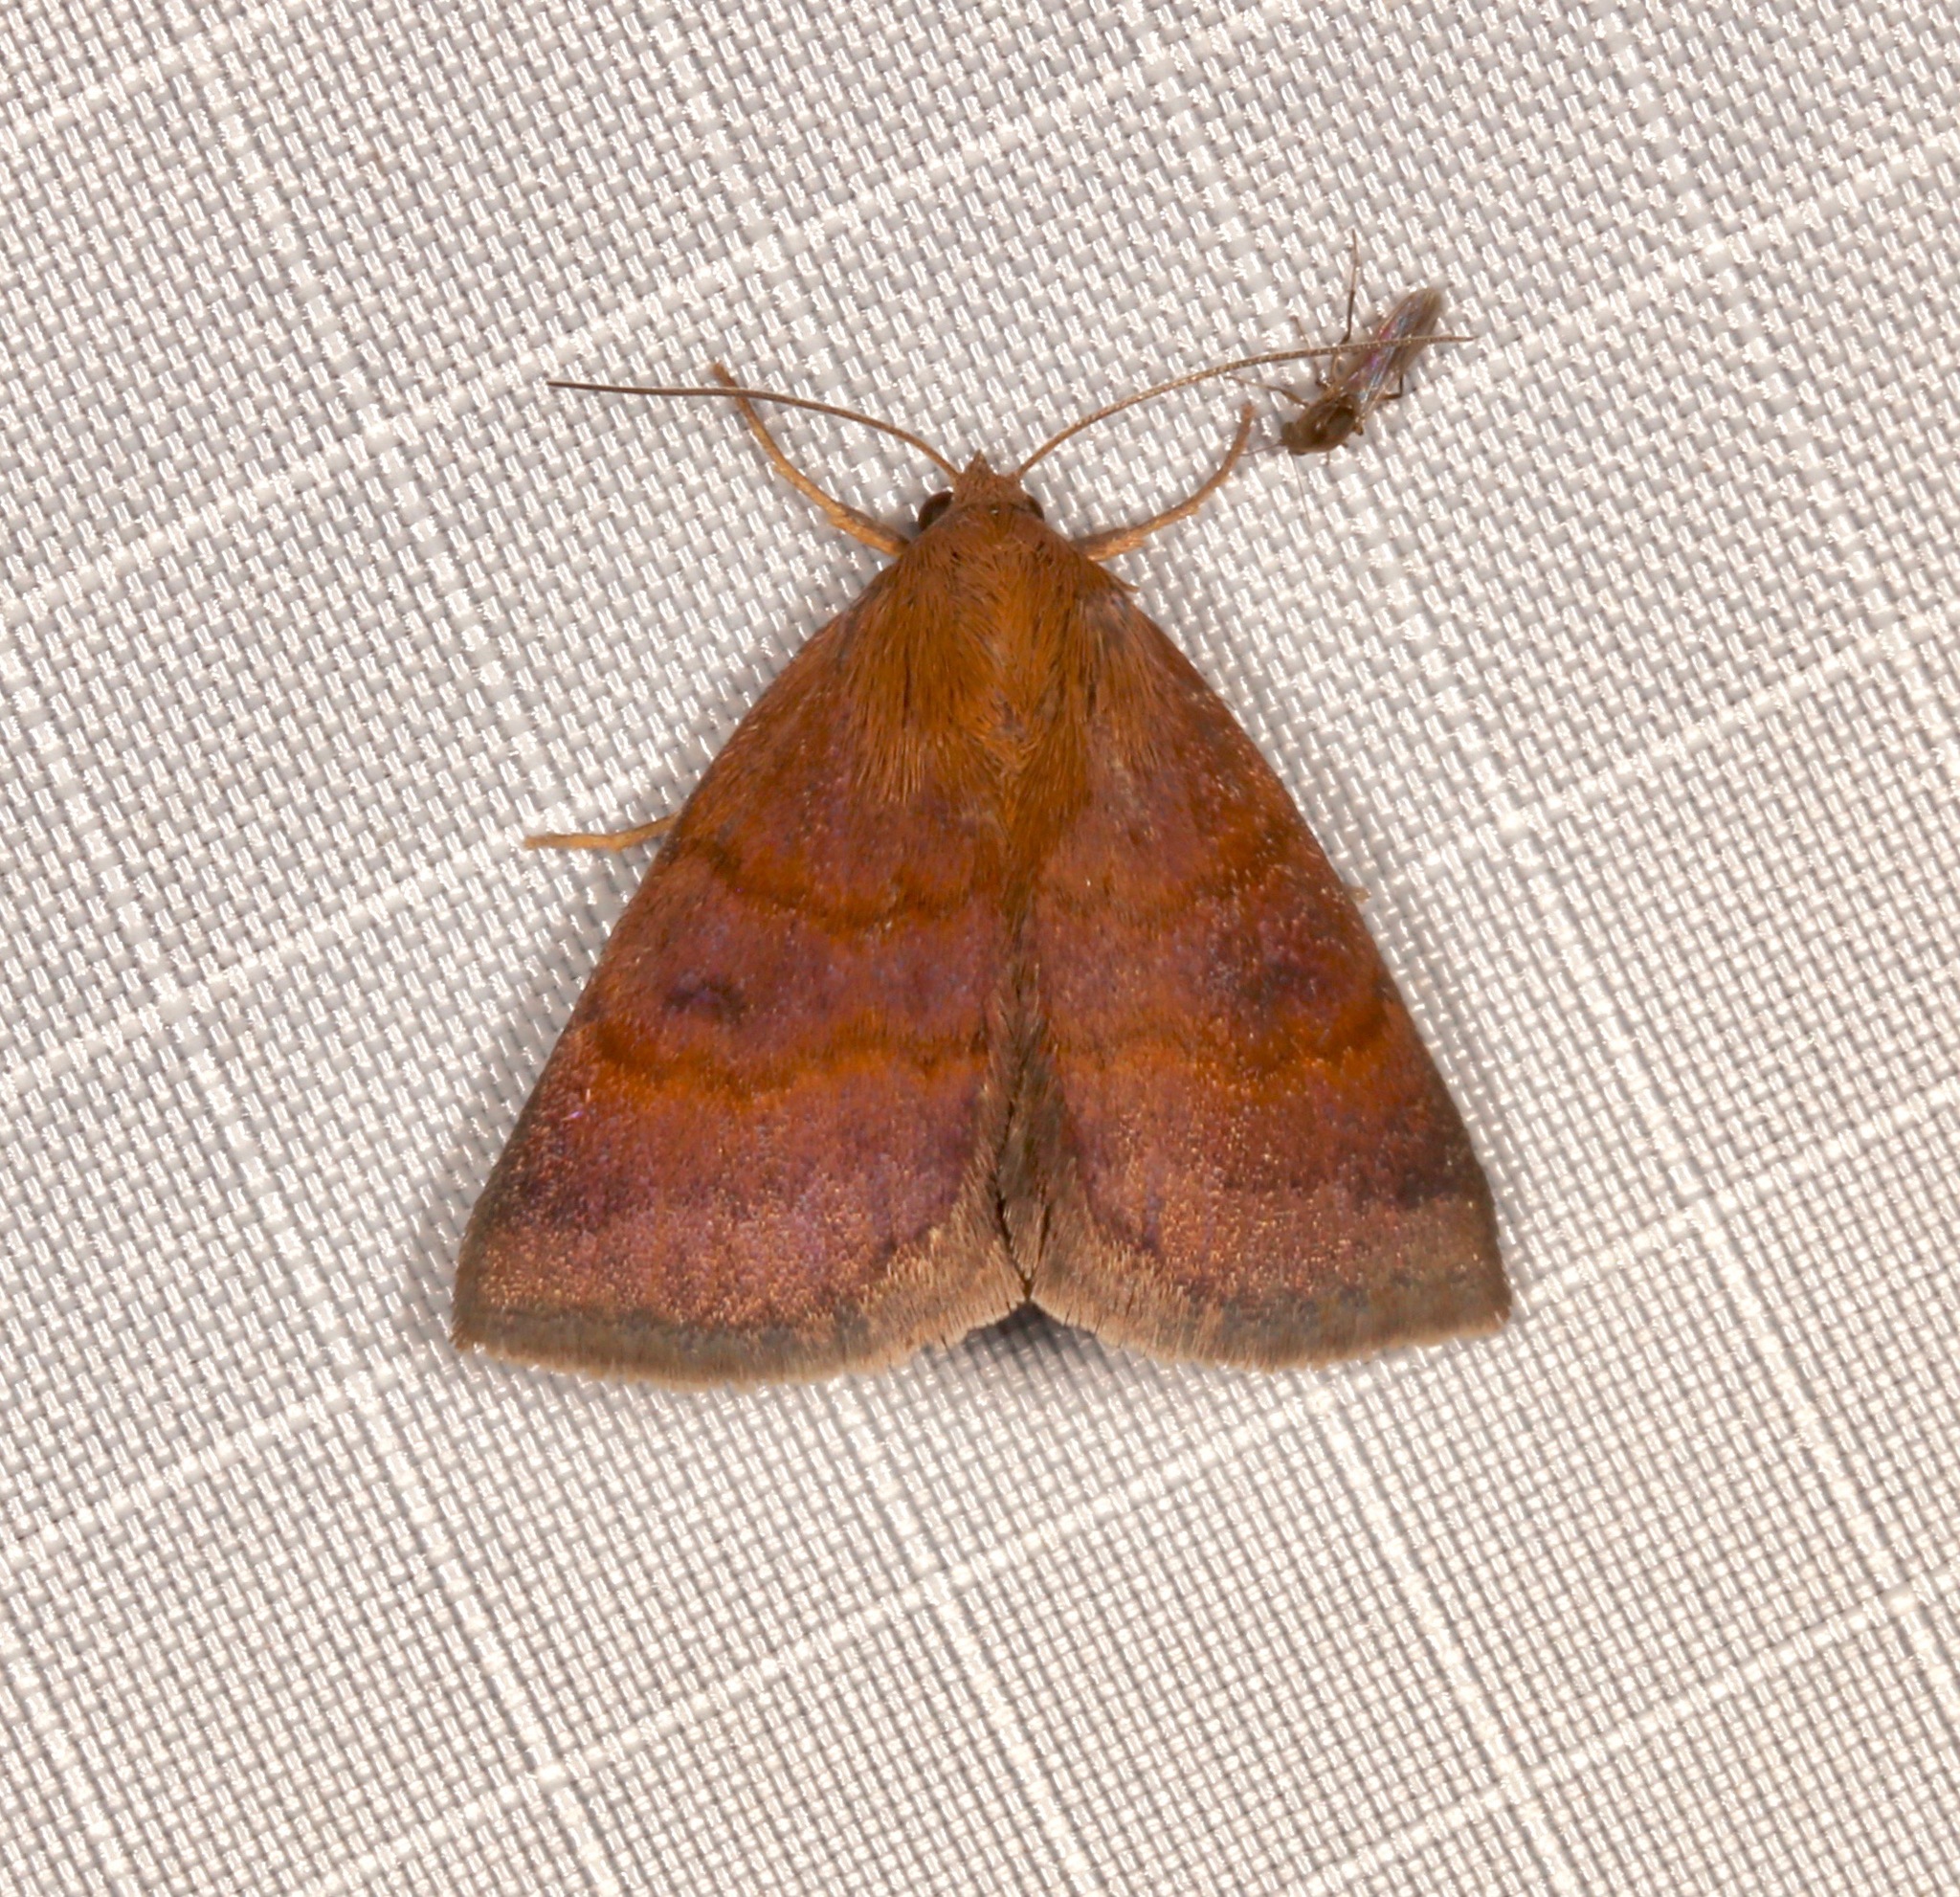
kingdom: Animalia
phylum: Arthropoda
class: Insecta
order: Lepidoptera
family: Erebidae
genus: Argyrostrotis
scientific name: Argyrostrotis deleta
